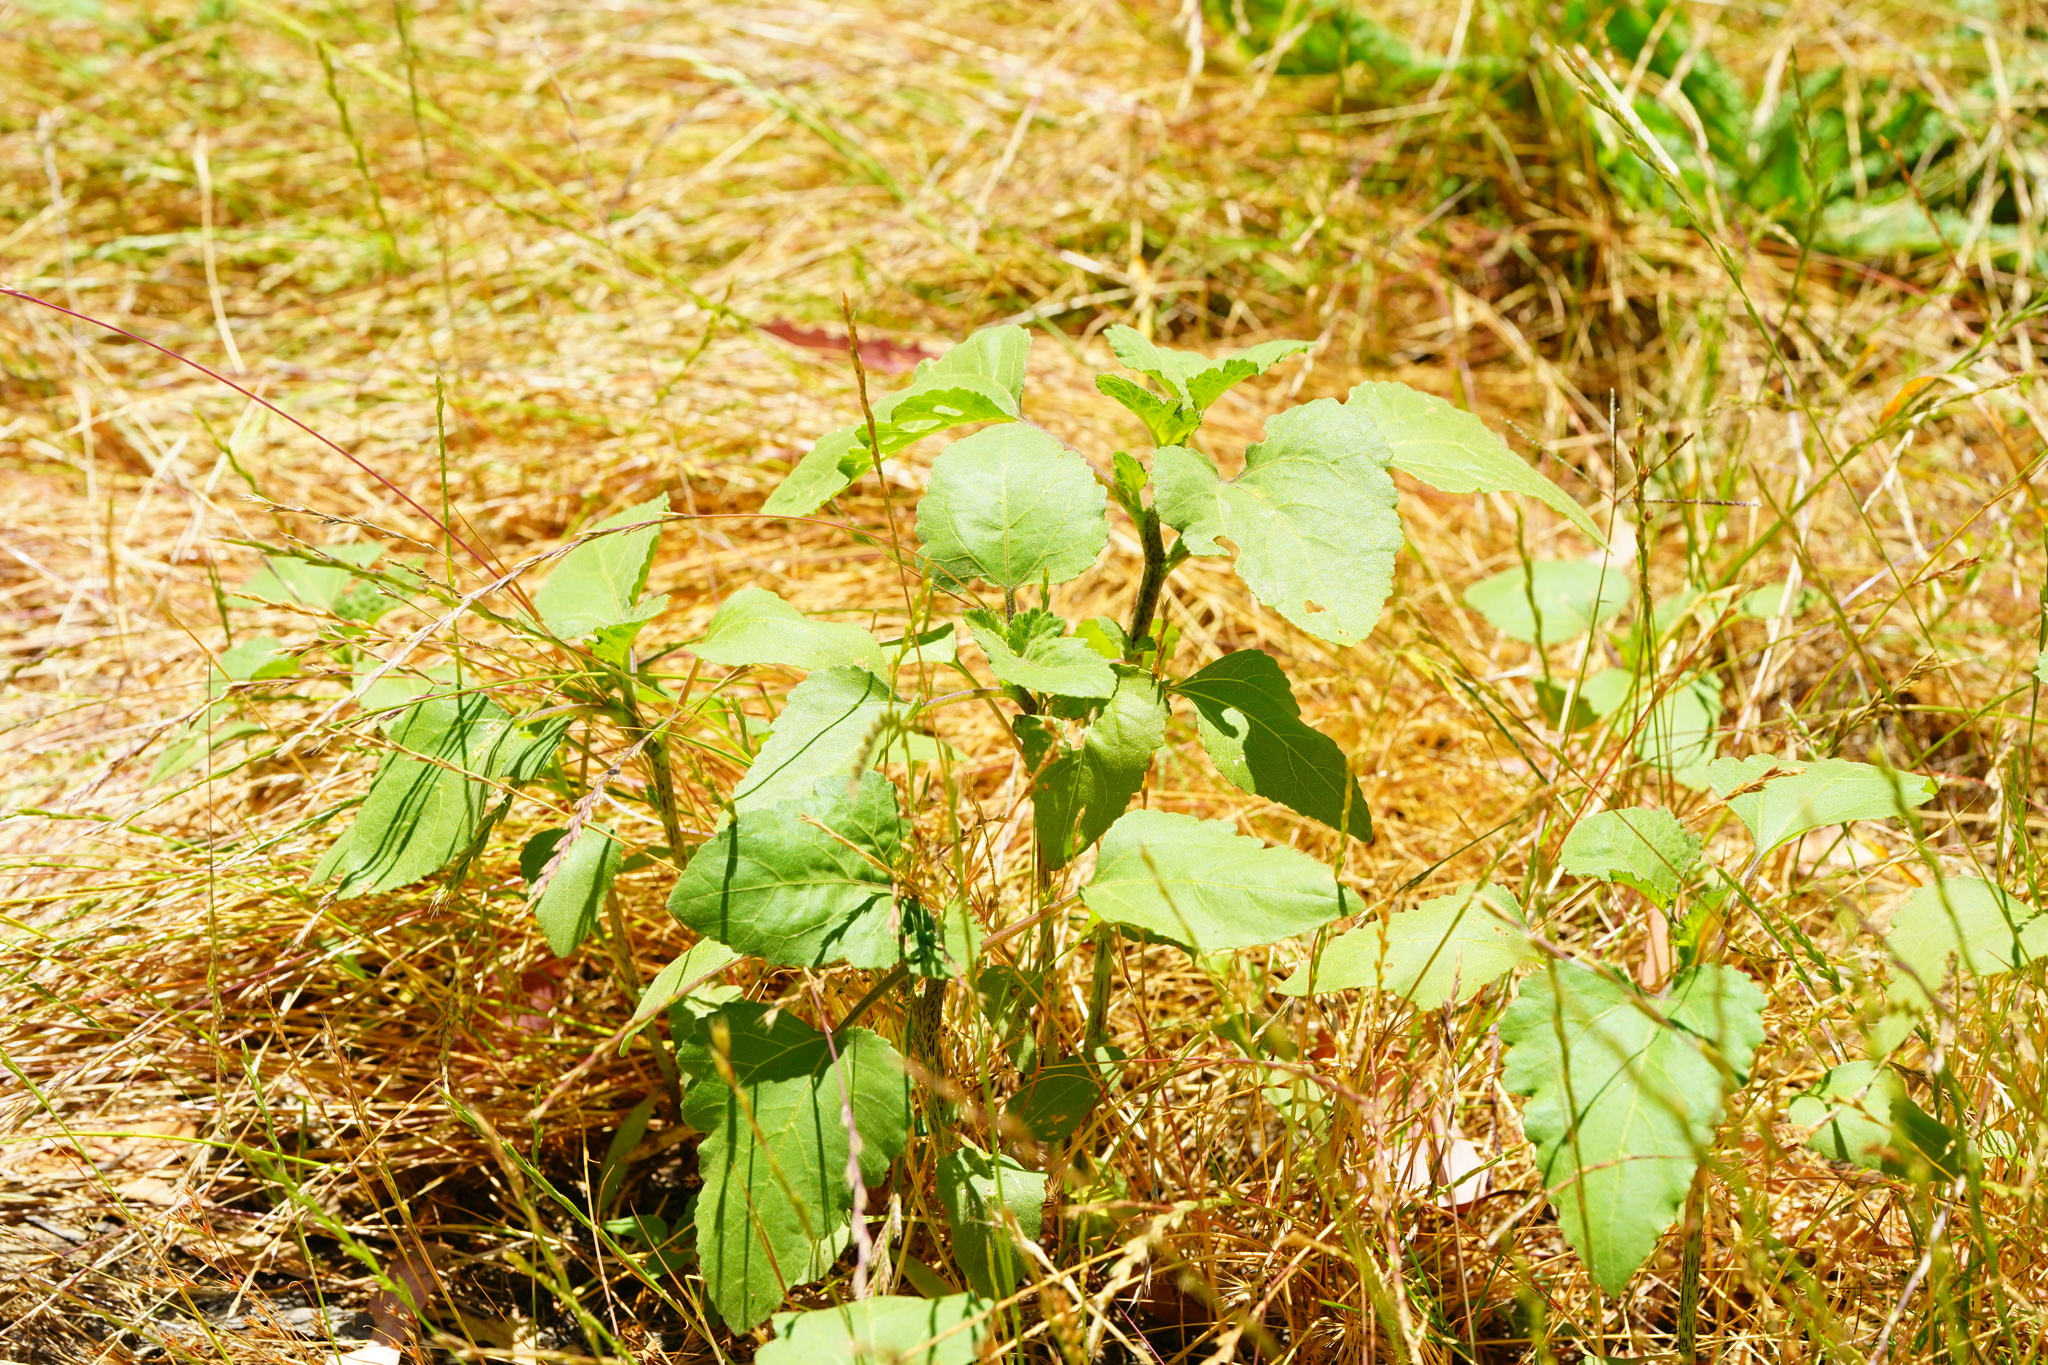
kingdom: Plantae
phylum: Tracheophyta
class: Magnoliopsida
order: Asterales
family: Asteraceae
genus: Xanthium
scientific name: Xanthium strumarium
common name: Rough cocklebur
